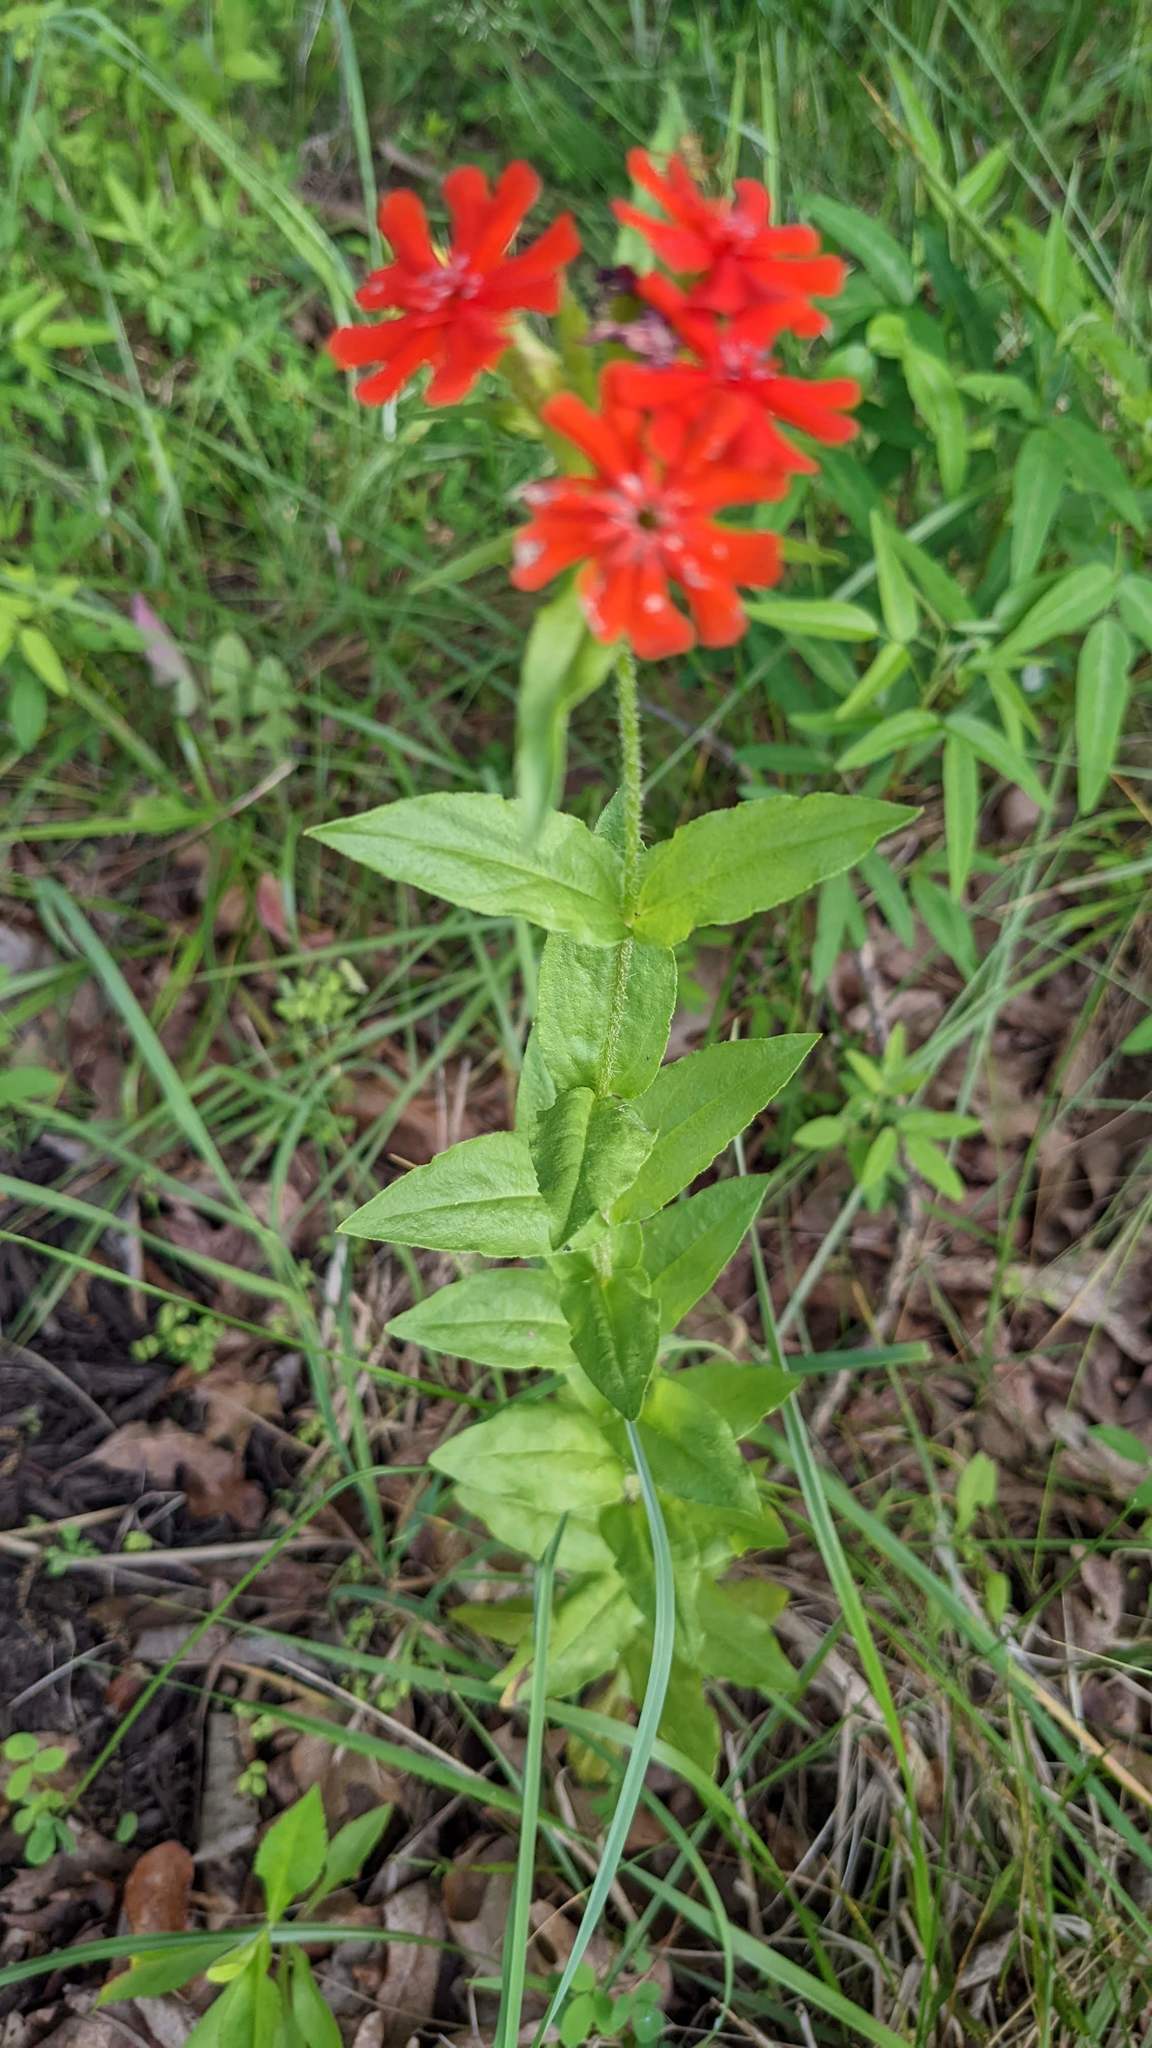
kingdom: Plantae
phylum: Tracheophyta
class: Magnoliopsida
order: Caryophyllales
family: Caryophyllaceae
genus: Silene
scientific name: Silene chalcedonica
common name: Maltese-cross
